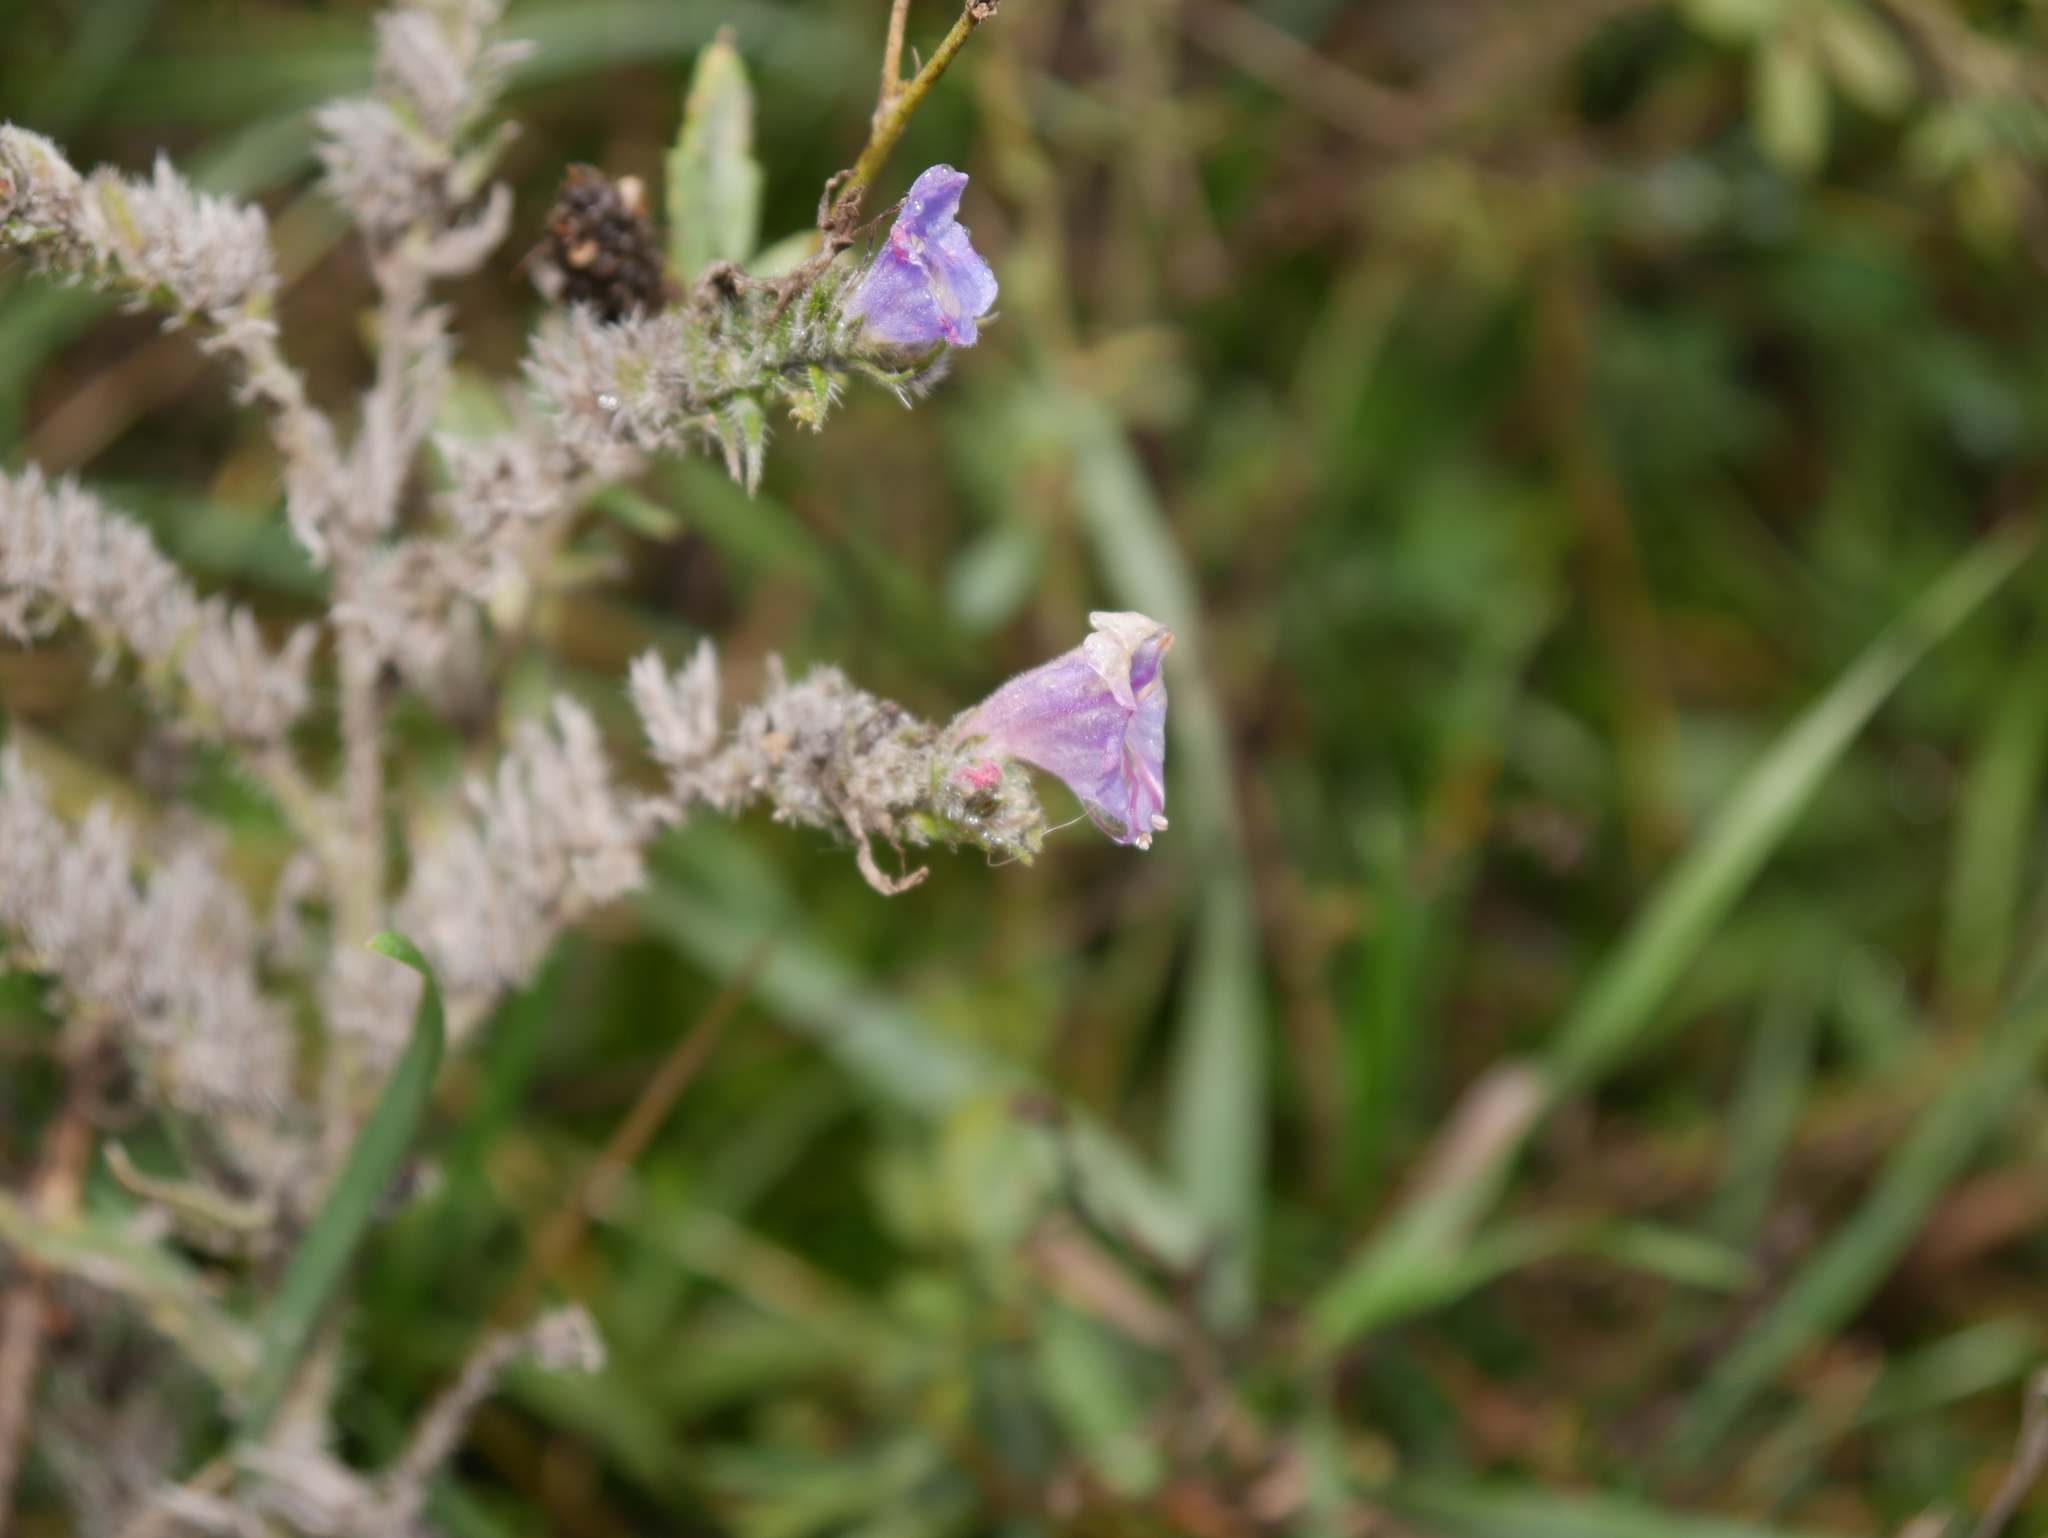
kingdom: Plantae
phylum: Tracheophyta
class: Magnoliopsida
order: Boraginales
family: Boraginaceae
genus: Echium
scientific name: Echium vulgare
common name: Common viper's bugloss
